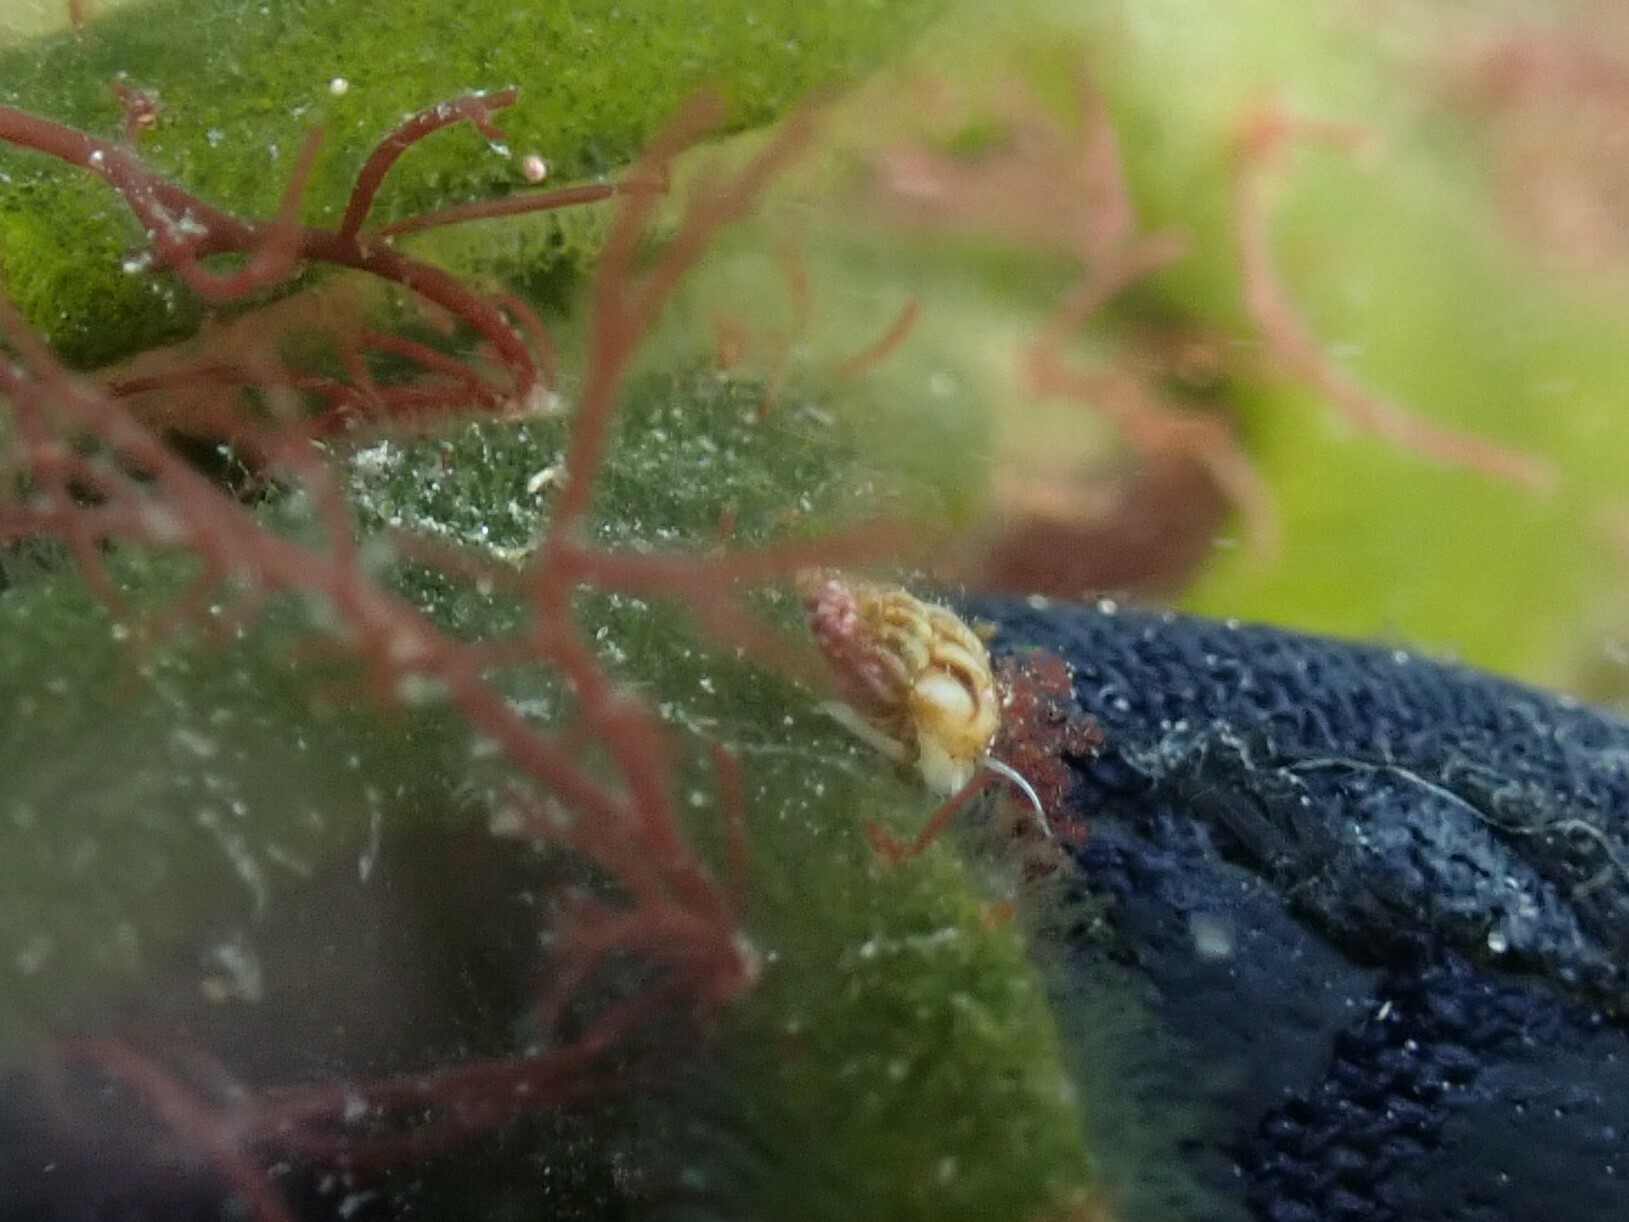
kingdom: Animalia
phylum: Mollusca
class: Gastropoda
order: Littorinimorpha
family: Rissoidae
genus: Rissoa
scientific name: Rissoa parva
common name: Tiny risso snail
